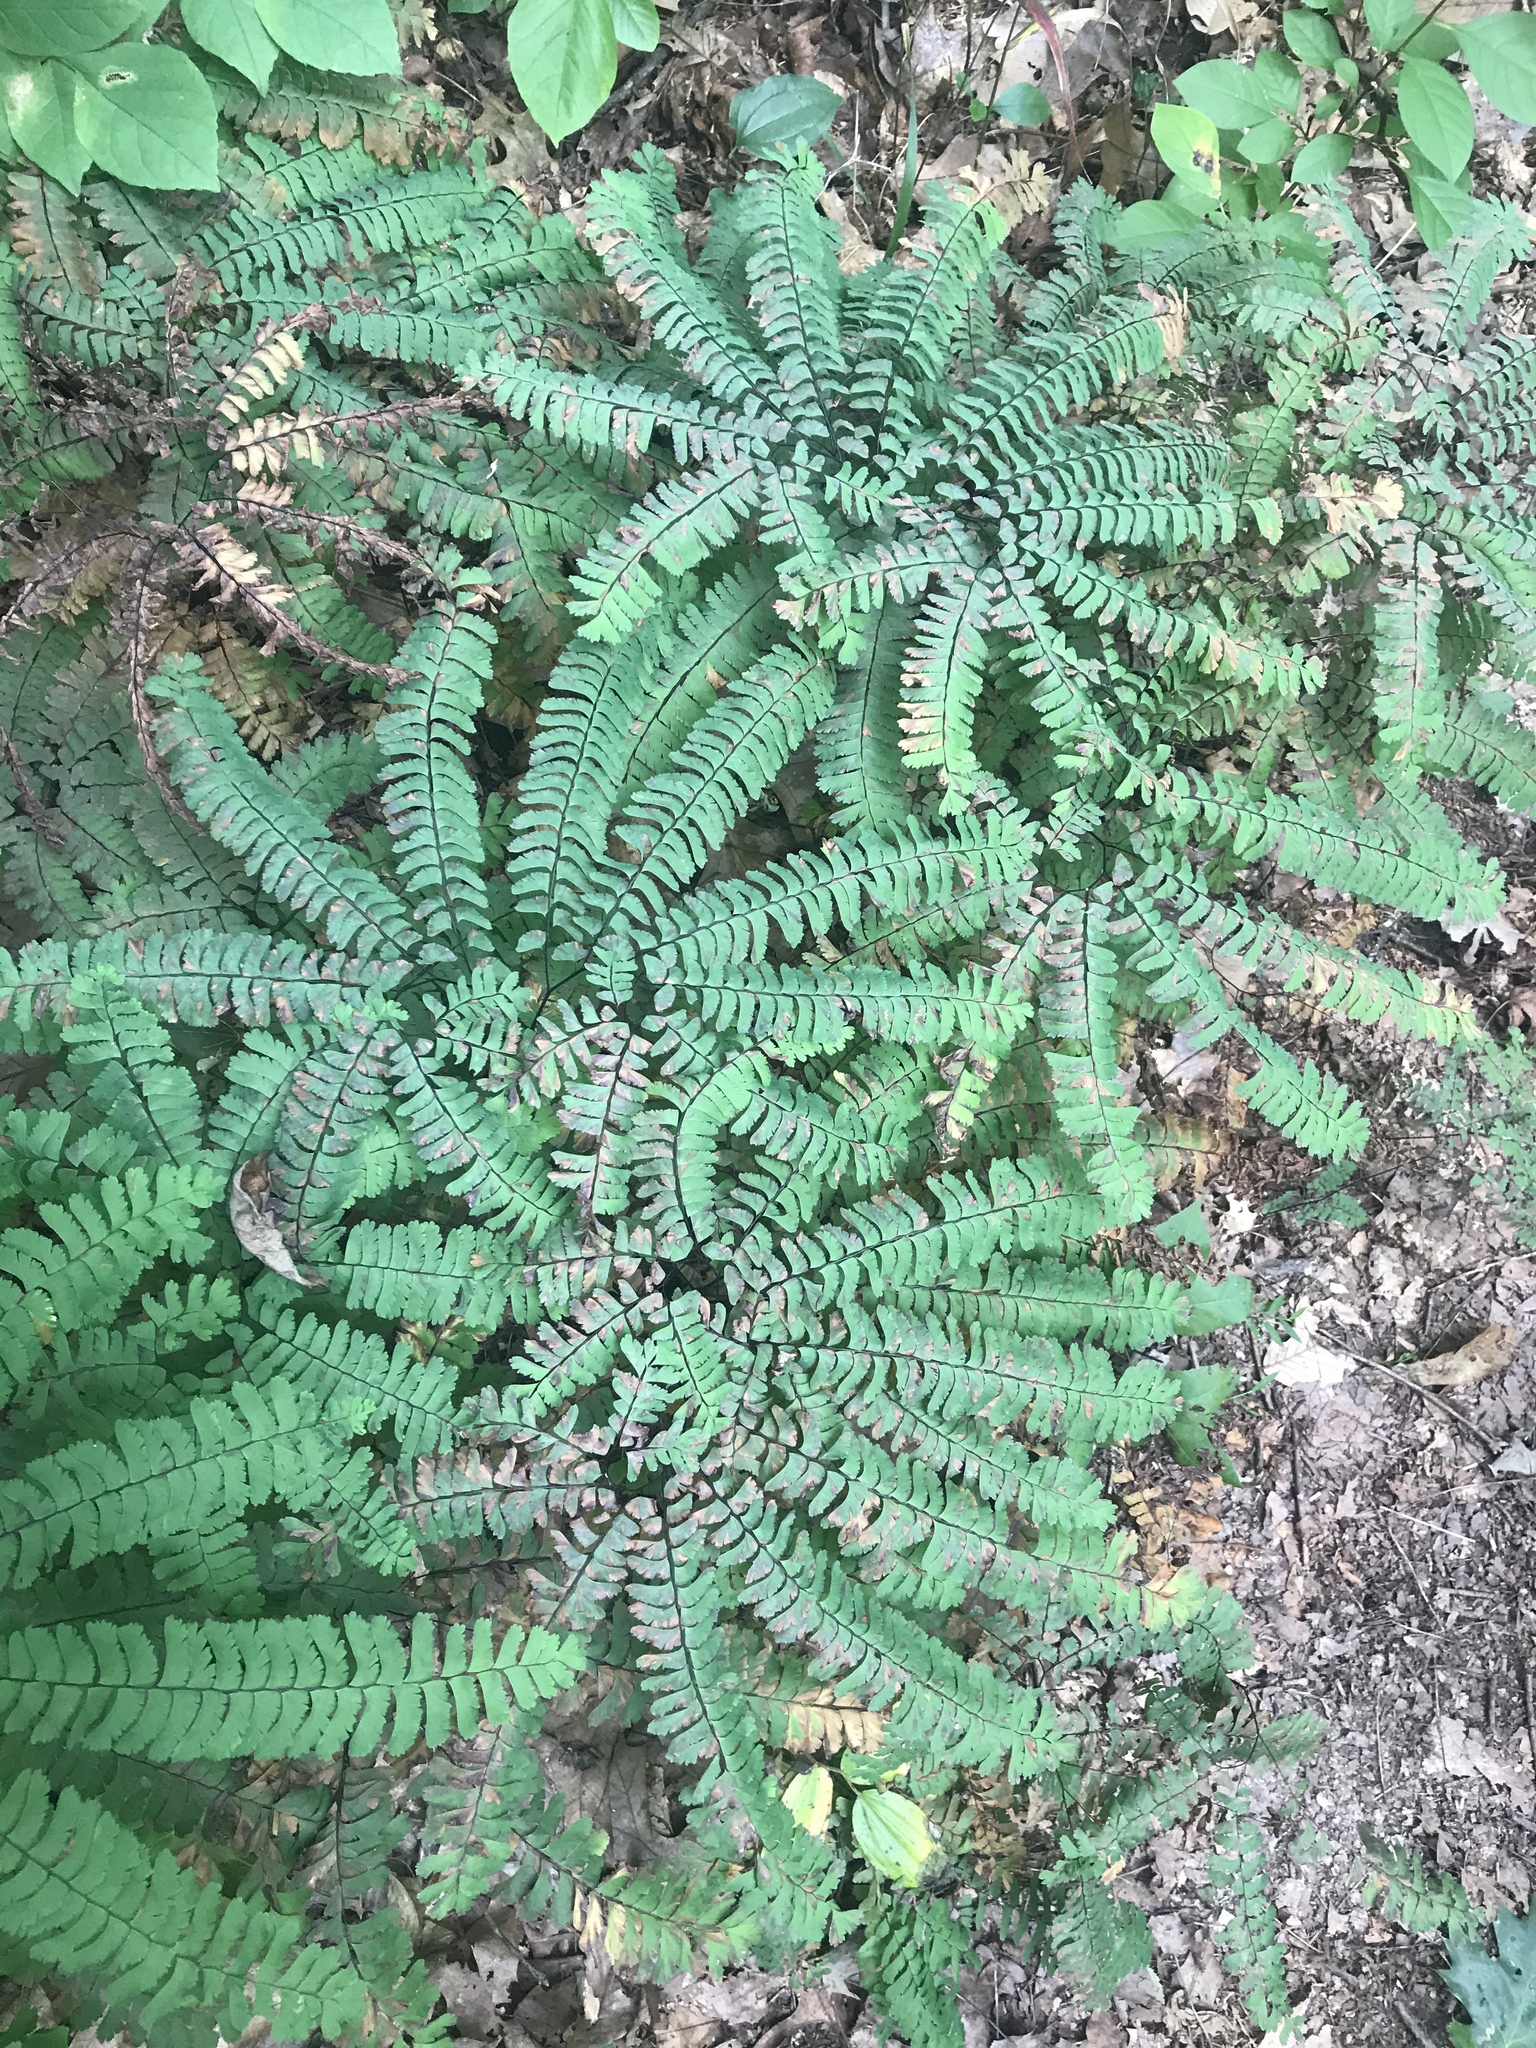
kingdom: Plantae
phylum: Tracheophyta
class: Polypodiopsida
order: Polypodiales
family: Pteridaceae
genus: Adiantum
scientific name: Adiantum pedatum
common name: Five-finger fern
